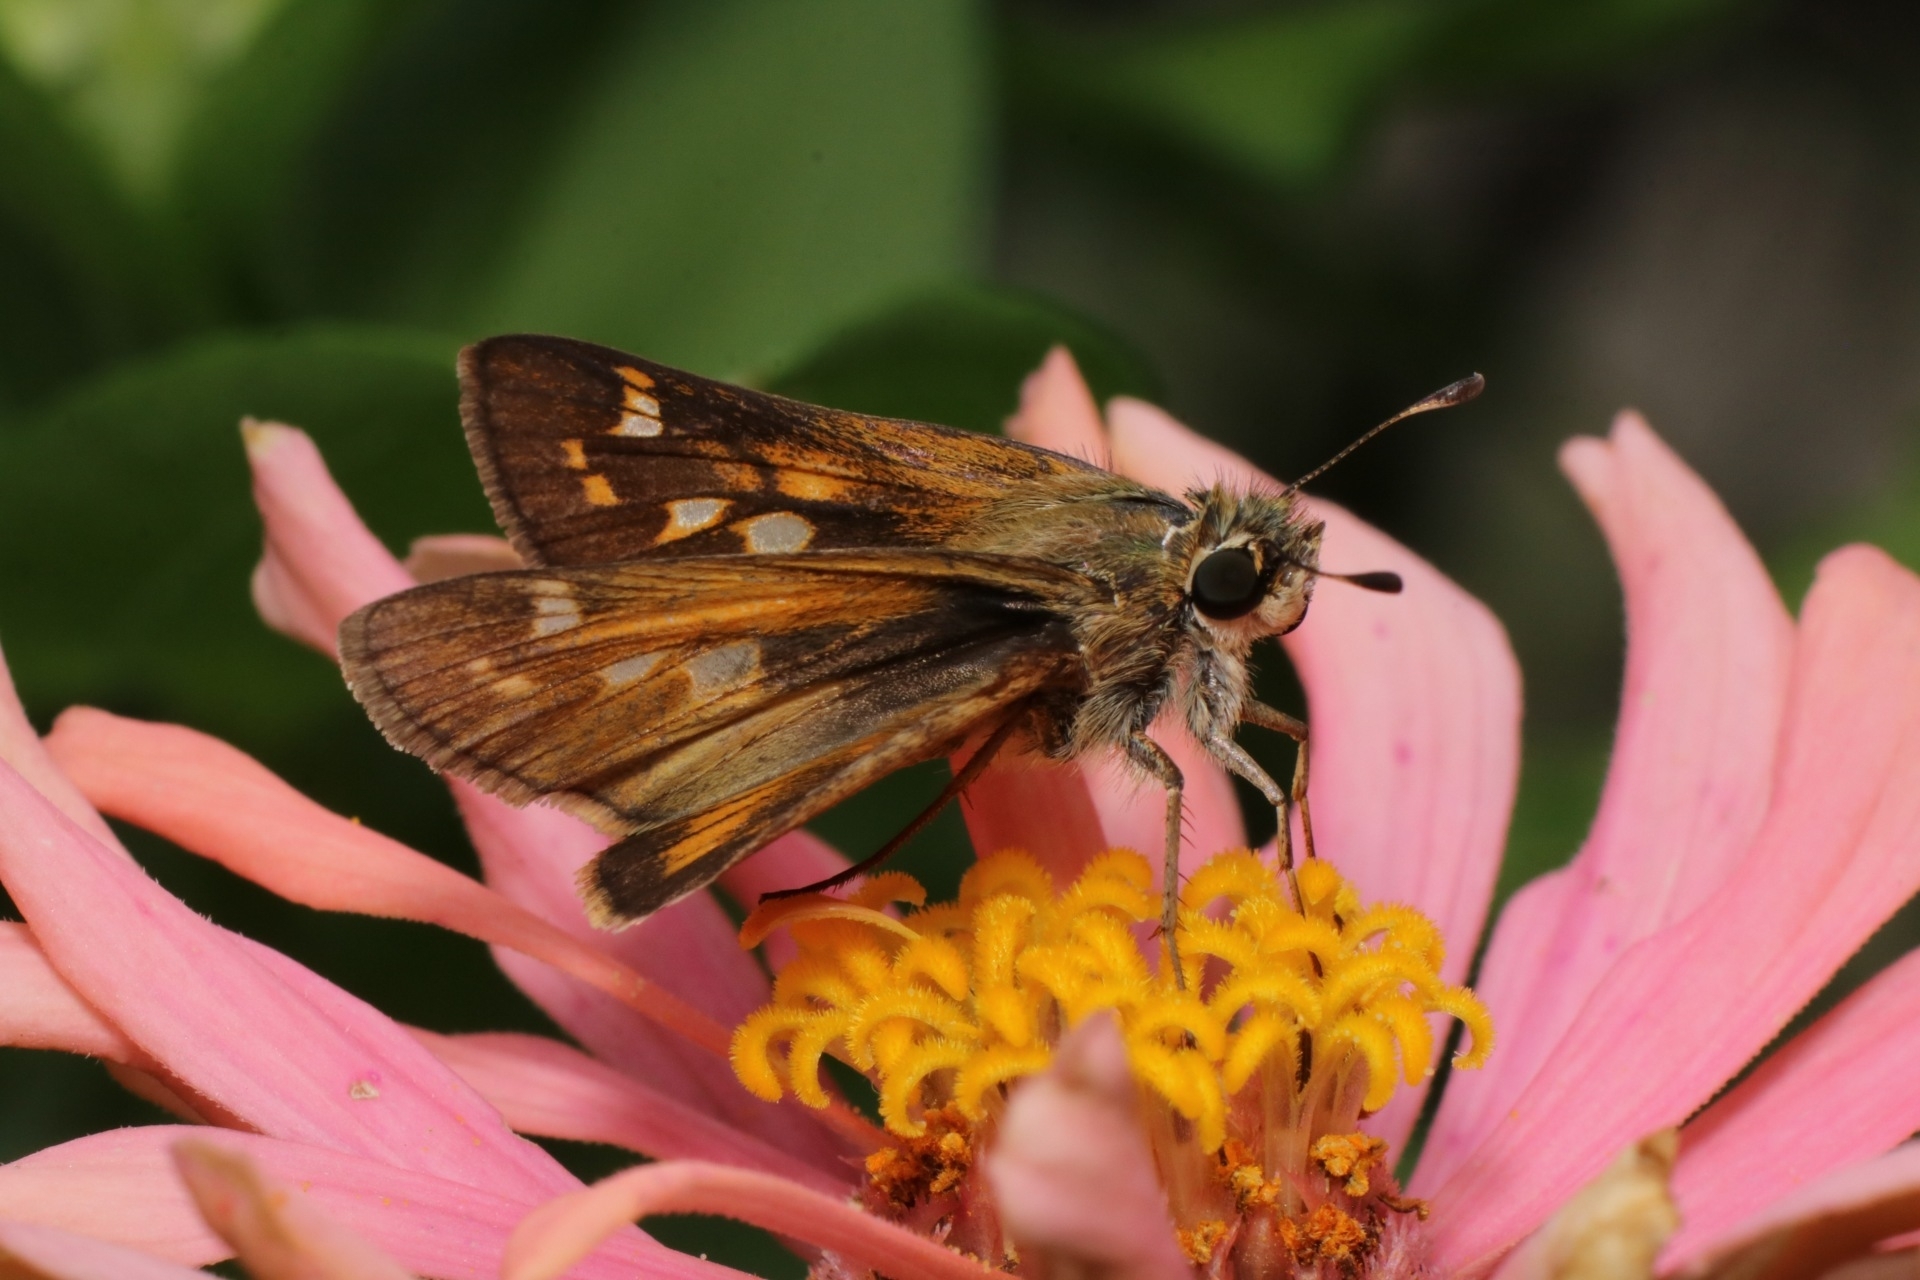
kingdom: Animalia
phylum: Arthropoda
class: Insecta
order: Lepidoptera
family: Hesperiidae
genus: Atalopedes
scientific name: Atalopedes
